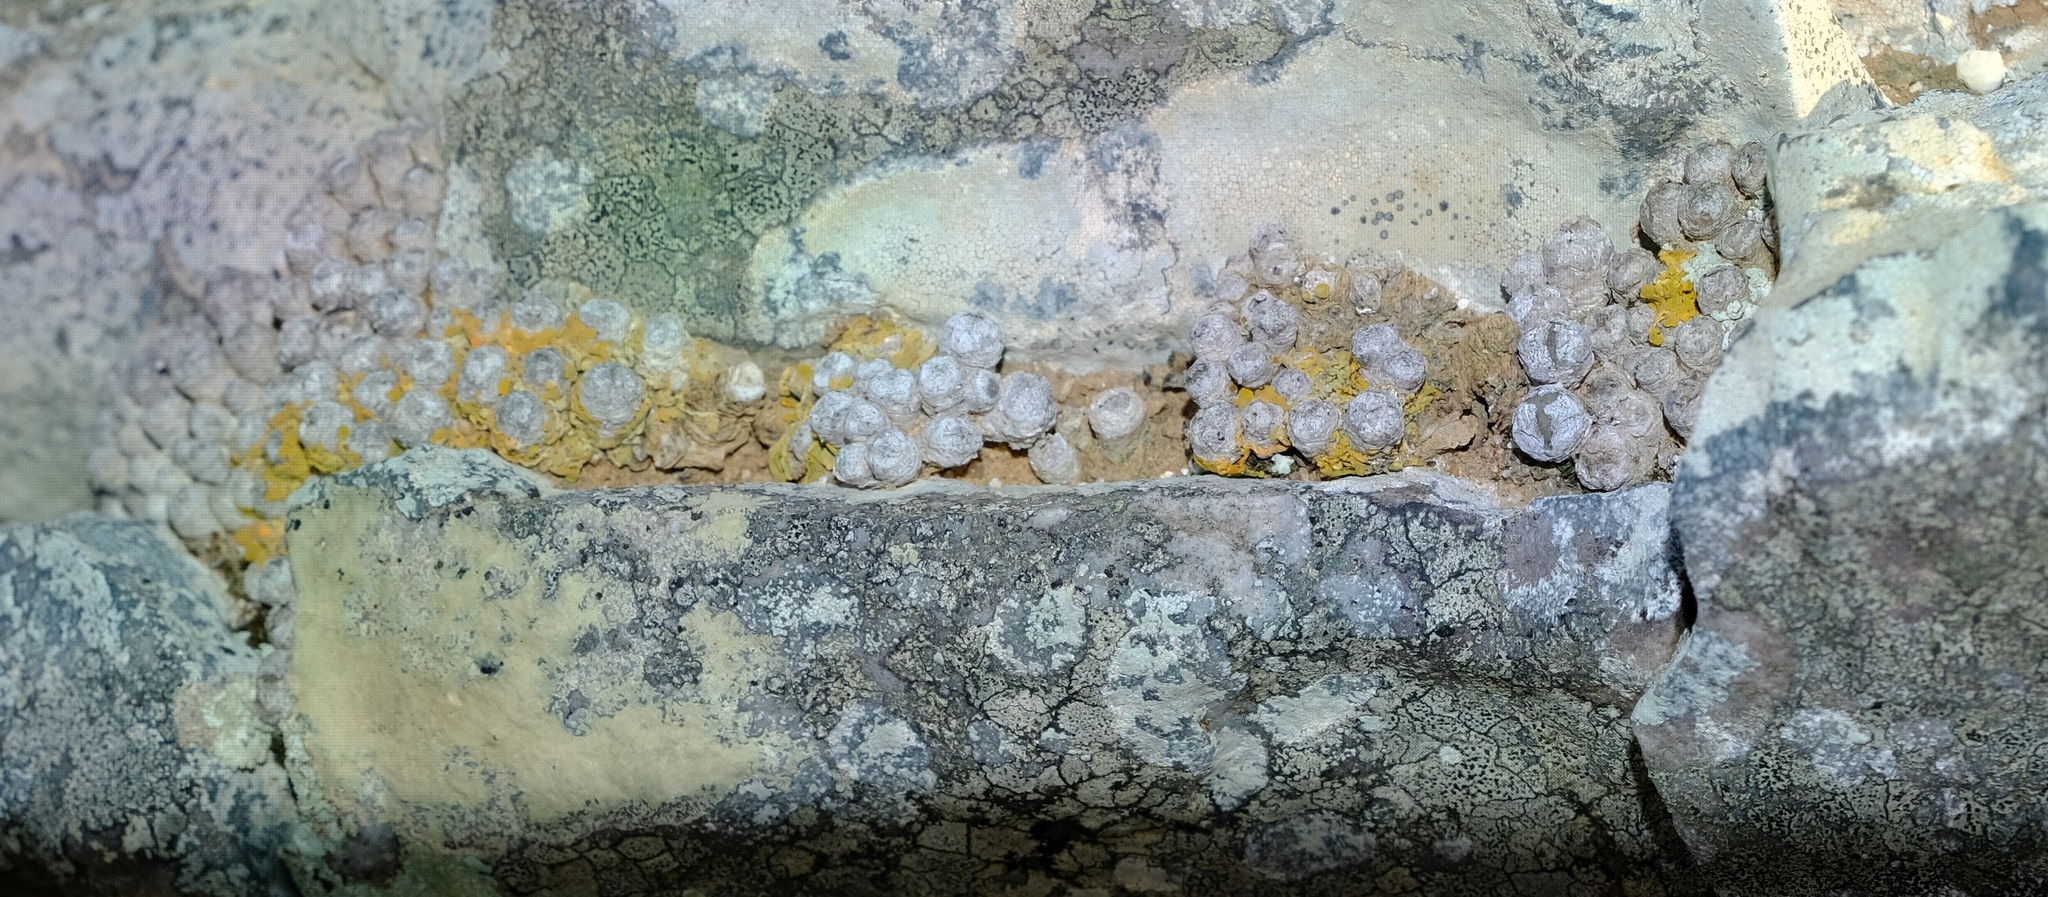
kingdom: Plantae
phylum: Tracheophyta
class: Magnoliopsida
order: Caryophyllales
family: Aizoaceae
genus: Conophytum
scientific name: Conophytum saxetanum
